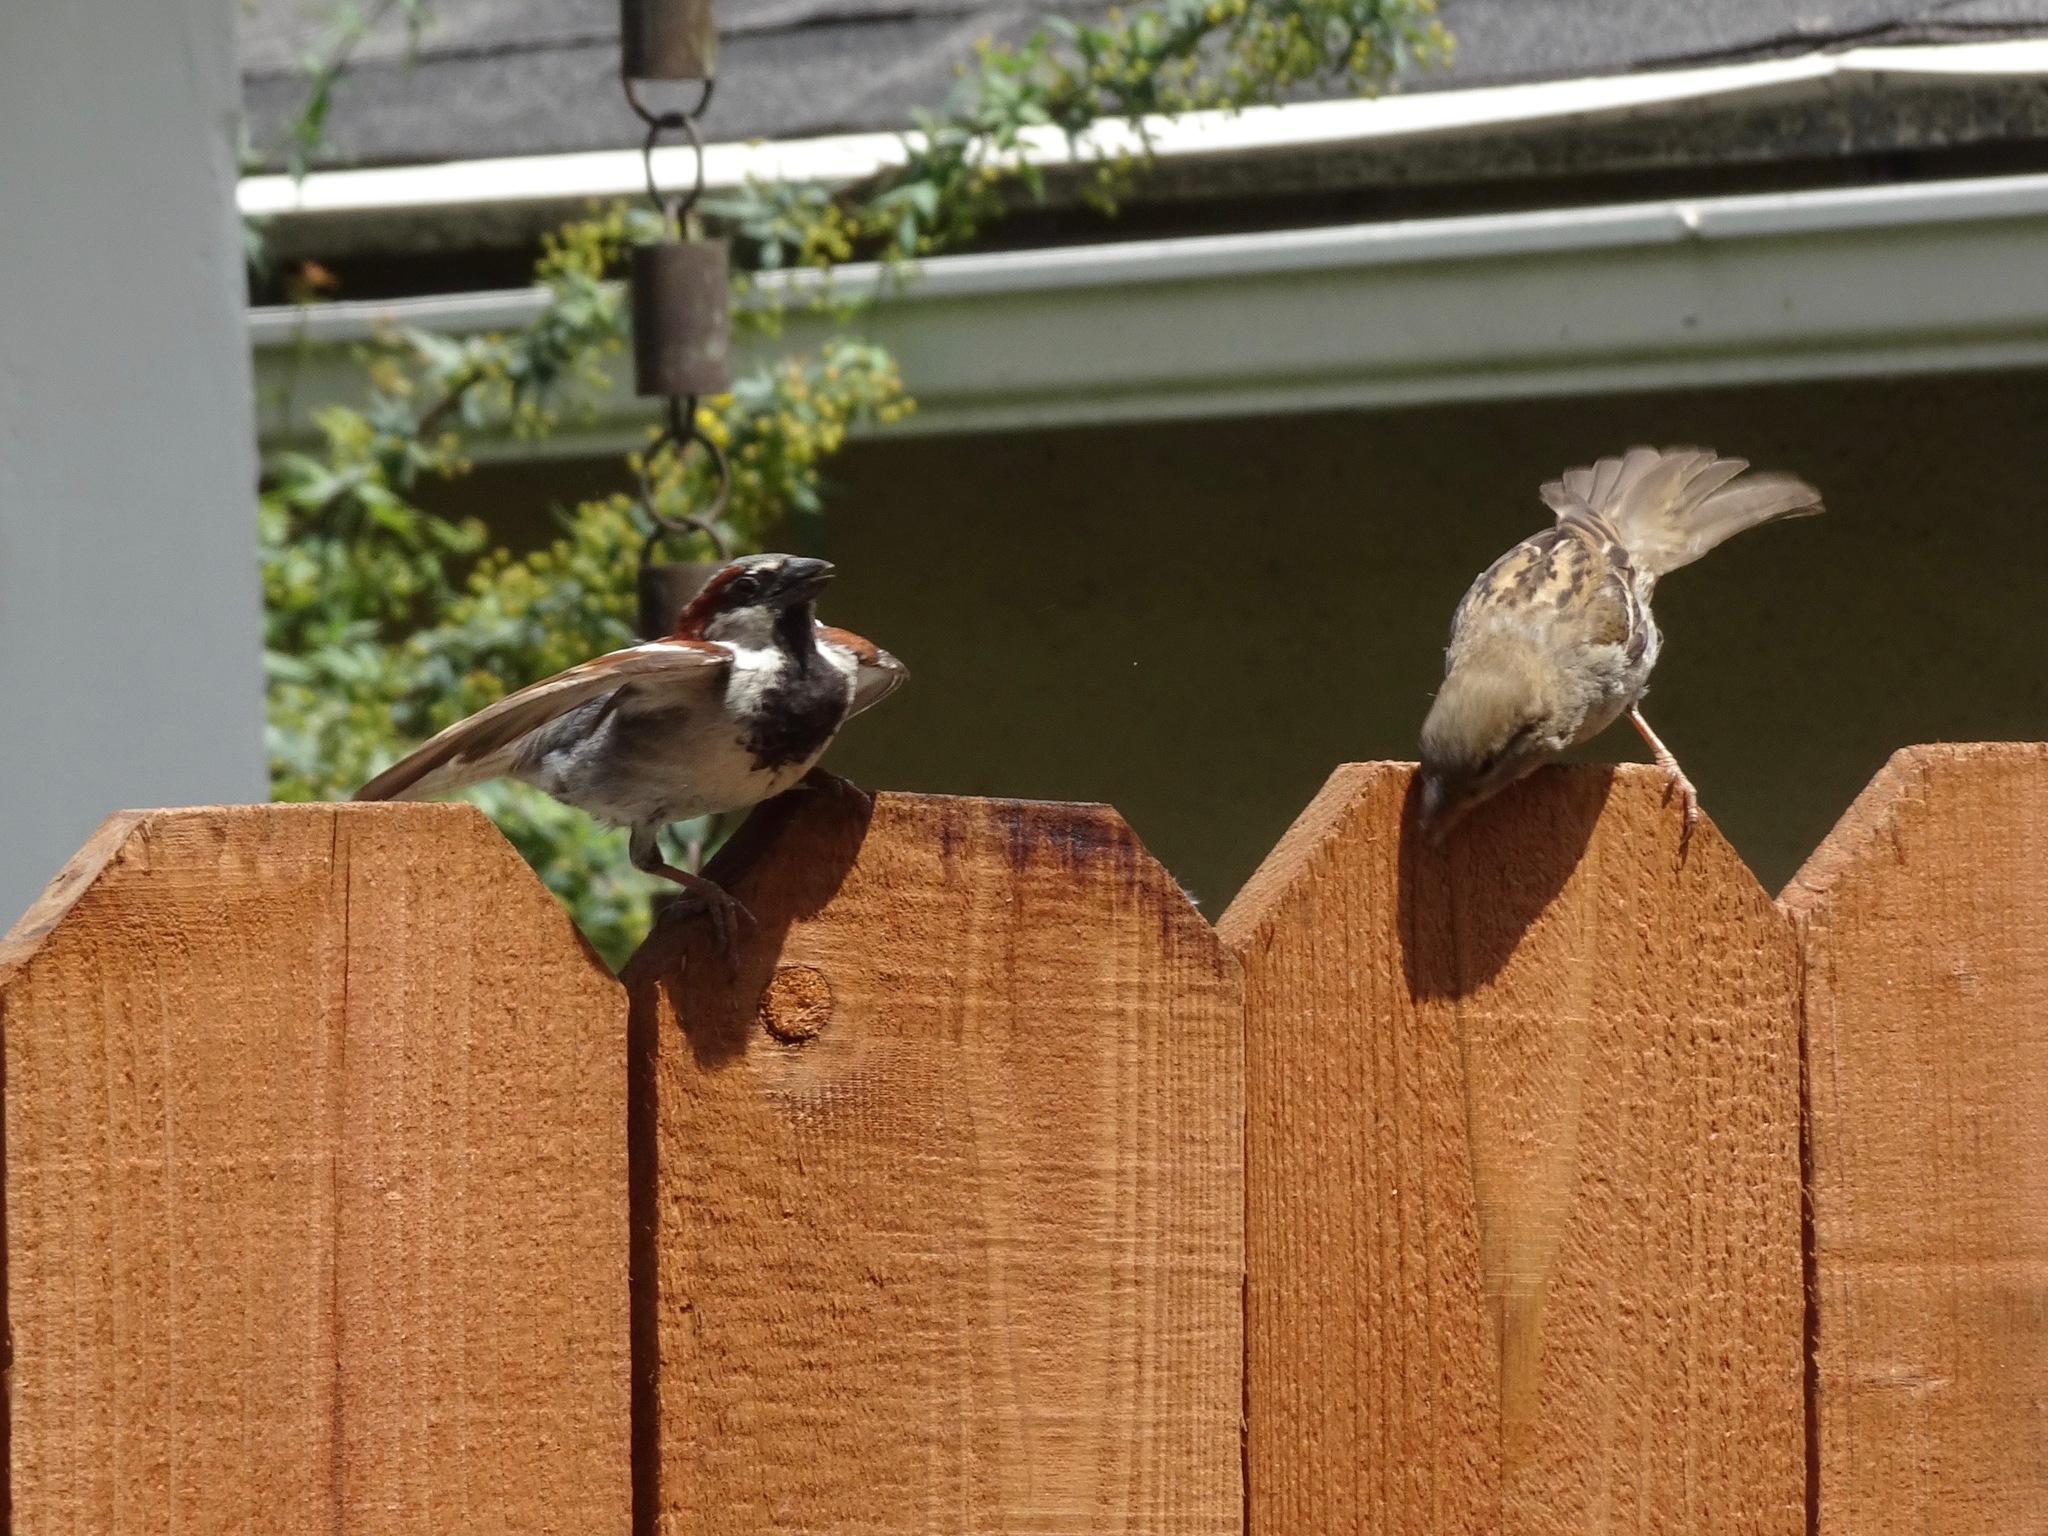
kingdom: Animalia
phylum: Chordata
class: Aves
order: Passeriformes
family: Passeridae
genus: Passer
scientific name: Passer domesticus
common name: House sparrow
